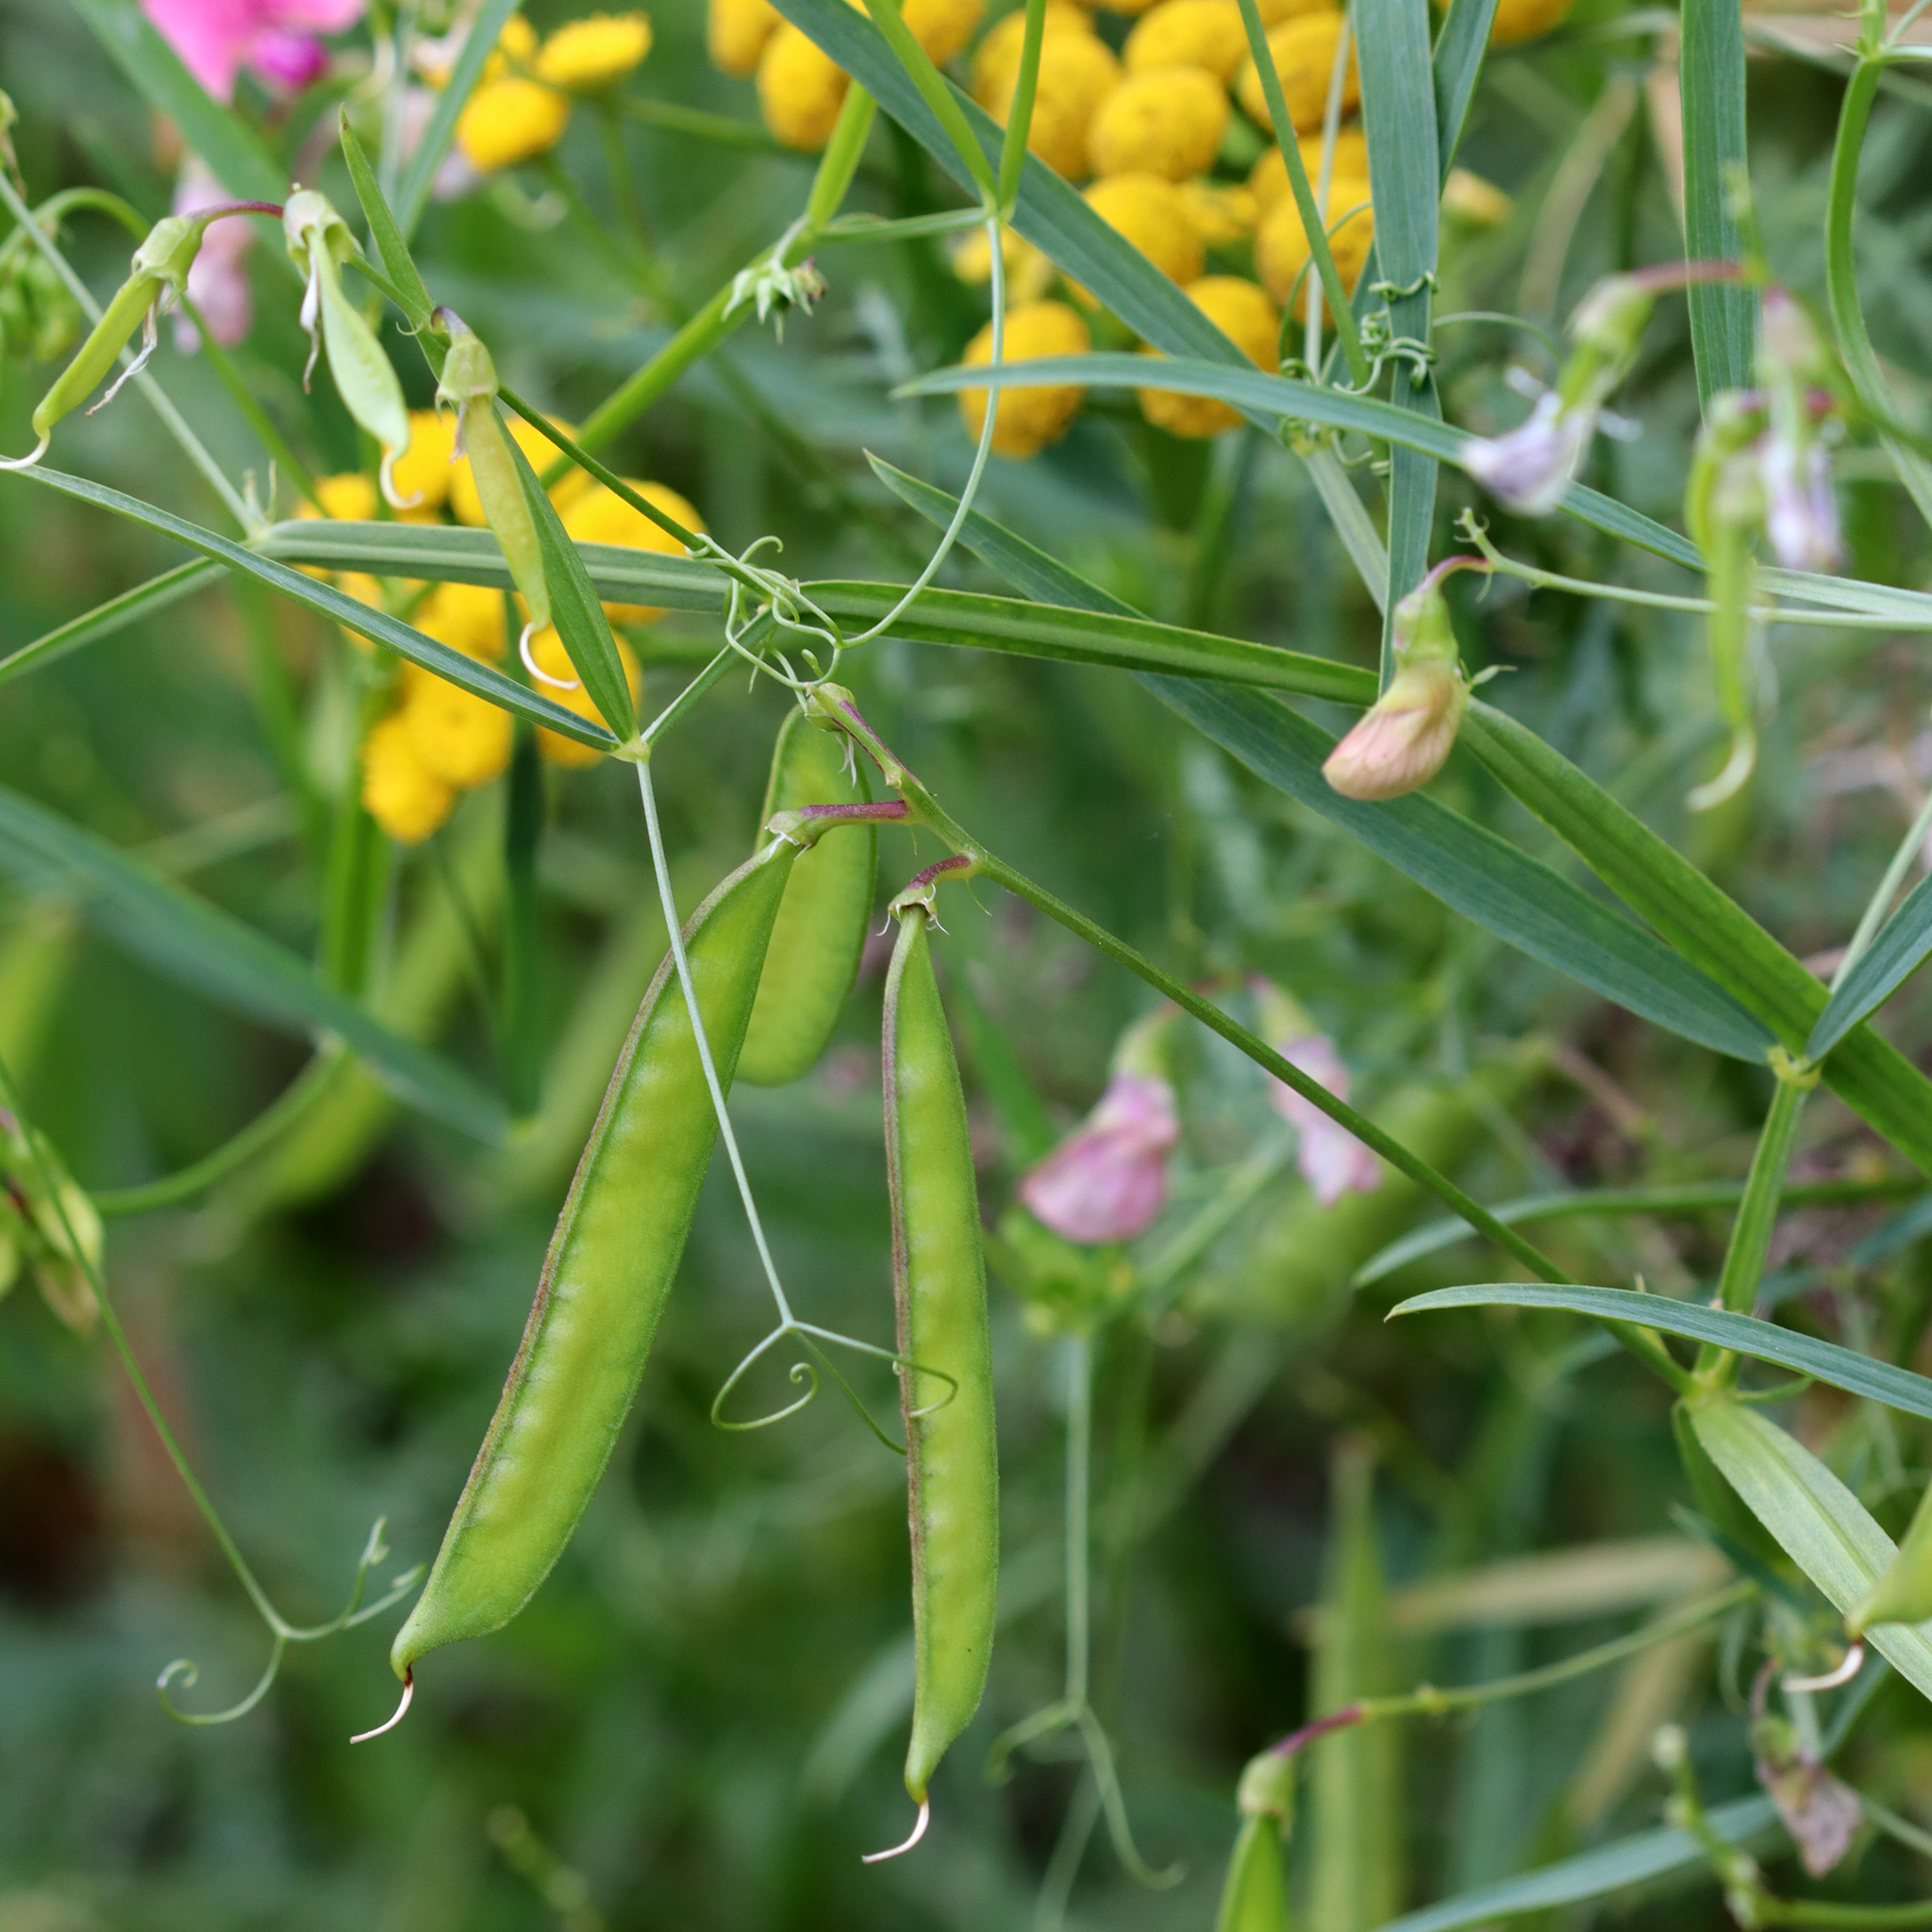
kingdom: Plantae
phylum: Tracheophyta
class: Magnoliopsida
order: Fabales
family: Fabaceae
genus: Lathyrus
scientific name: Lathyrus sylvestris
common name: Flat pea
